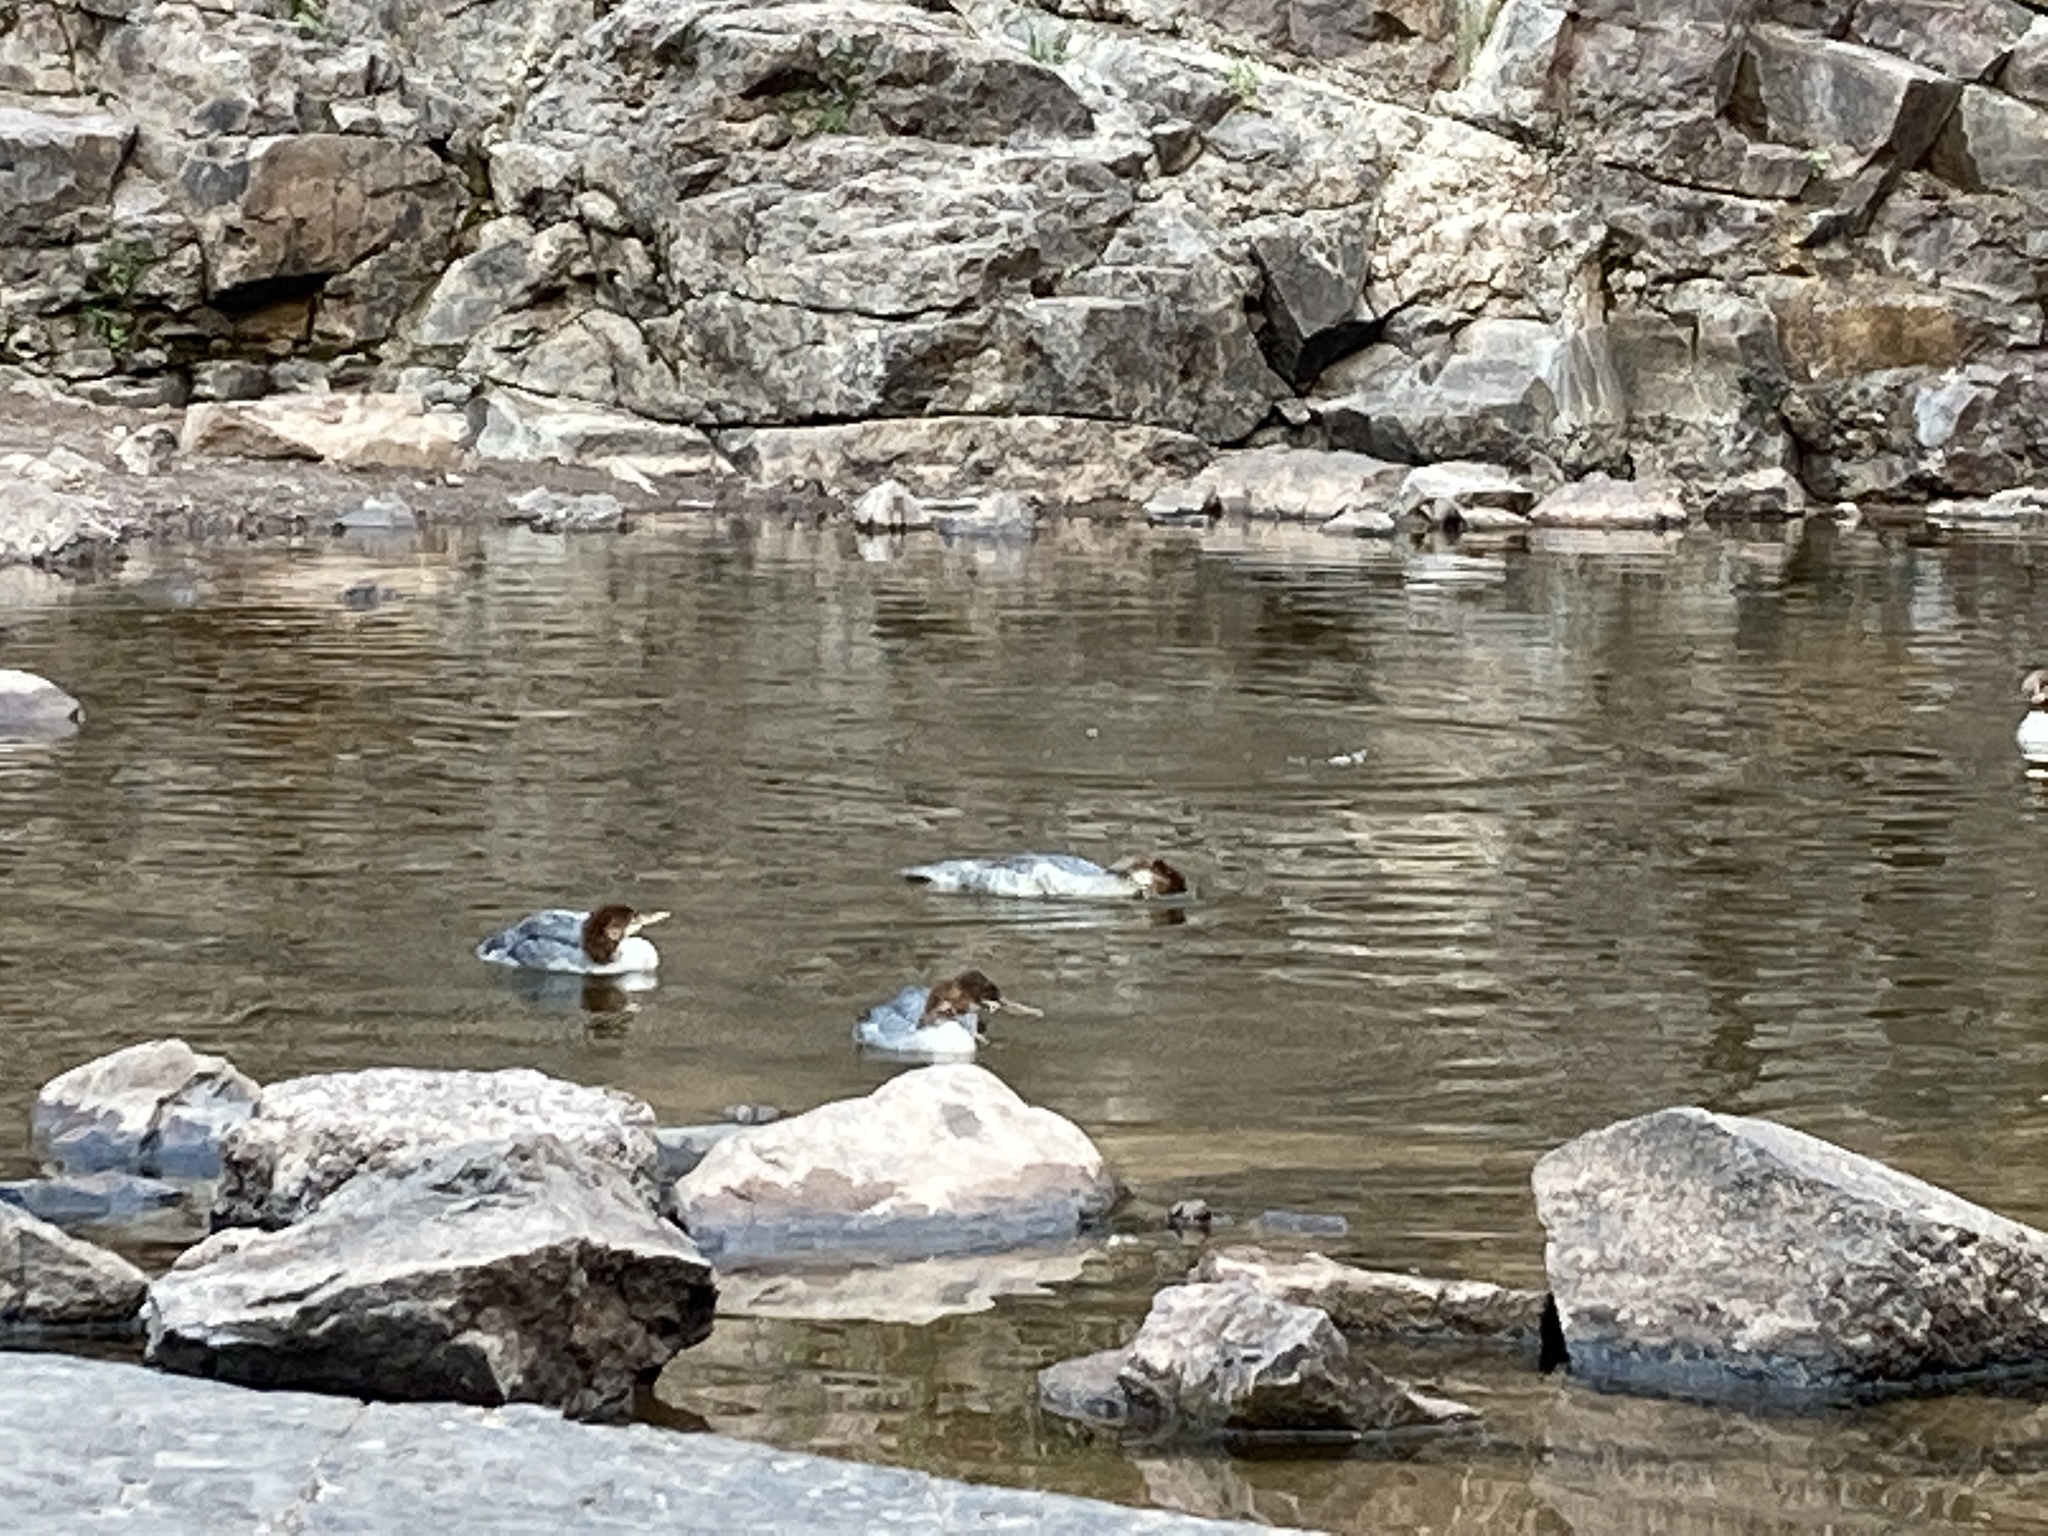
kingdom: Animalia
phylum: Chordata
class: Aves
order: Anseriformes
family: Anatidae
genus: Mergus
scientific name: Mergus merganser
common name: Common merganser
